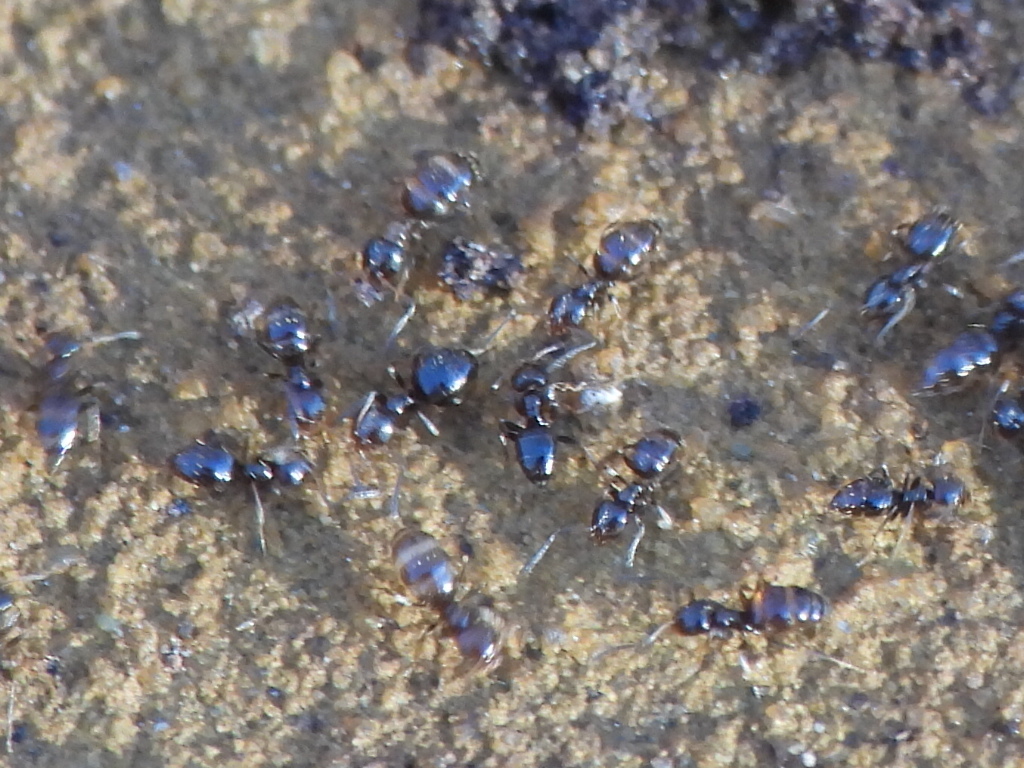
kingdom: Animalia
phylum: Arthropoda
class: Insecta
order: Hymenoptera
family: Formicidae
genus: Tapinoma
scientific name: Tapinoma sessile
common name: Odorous house ant
